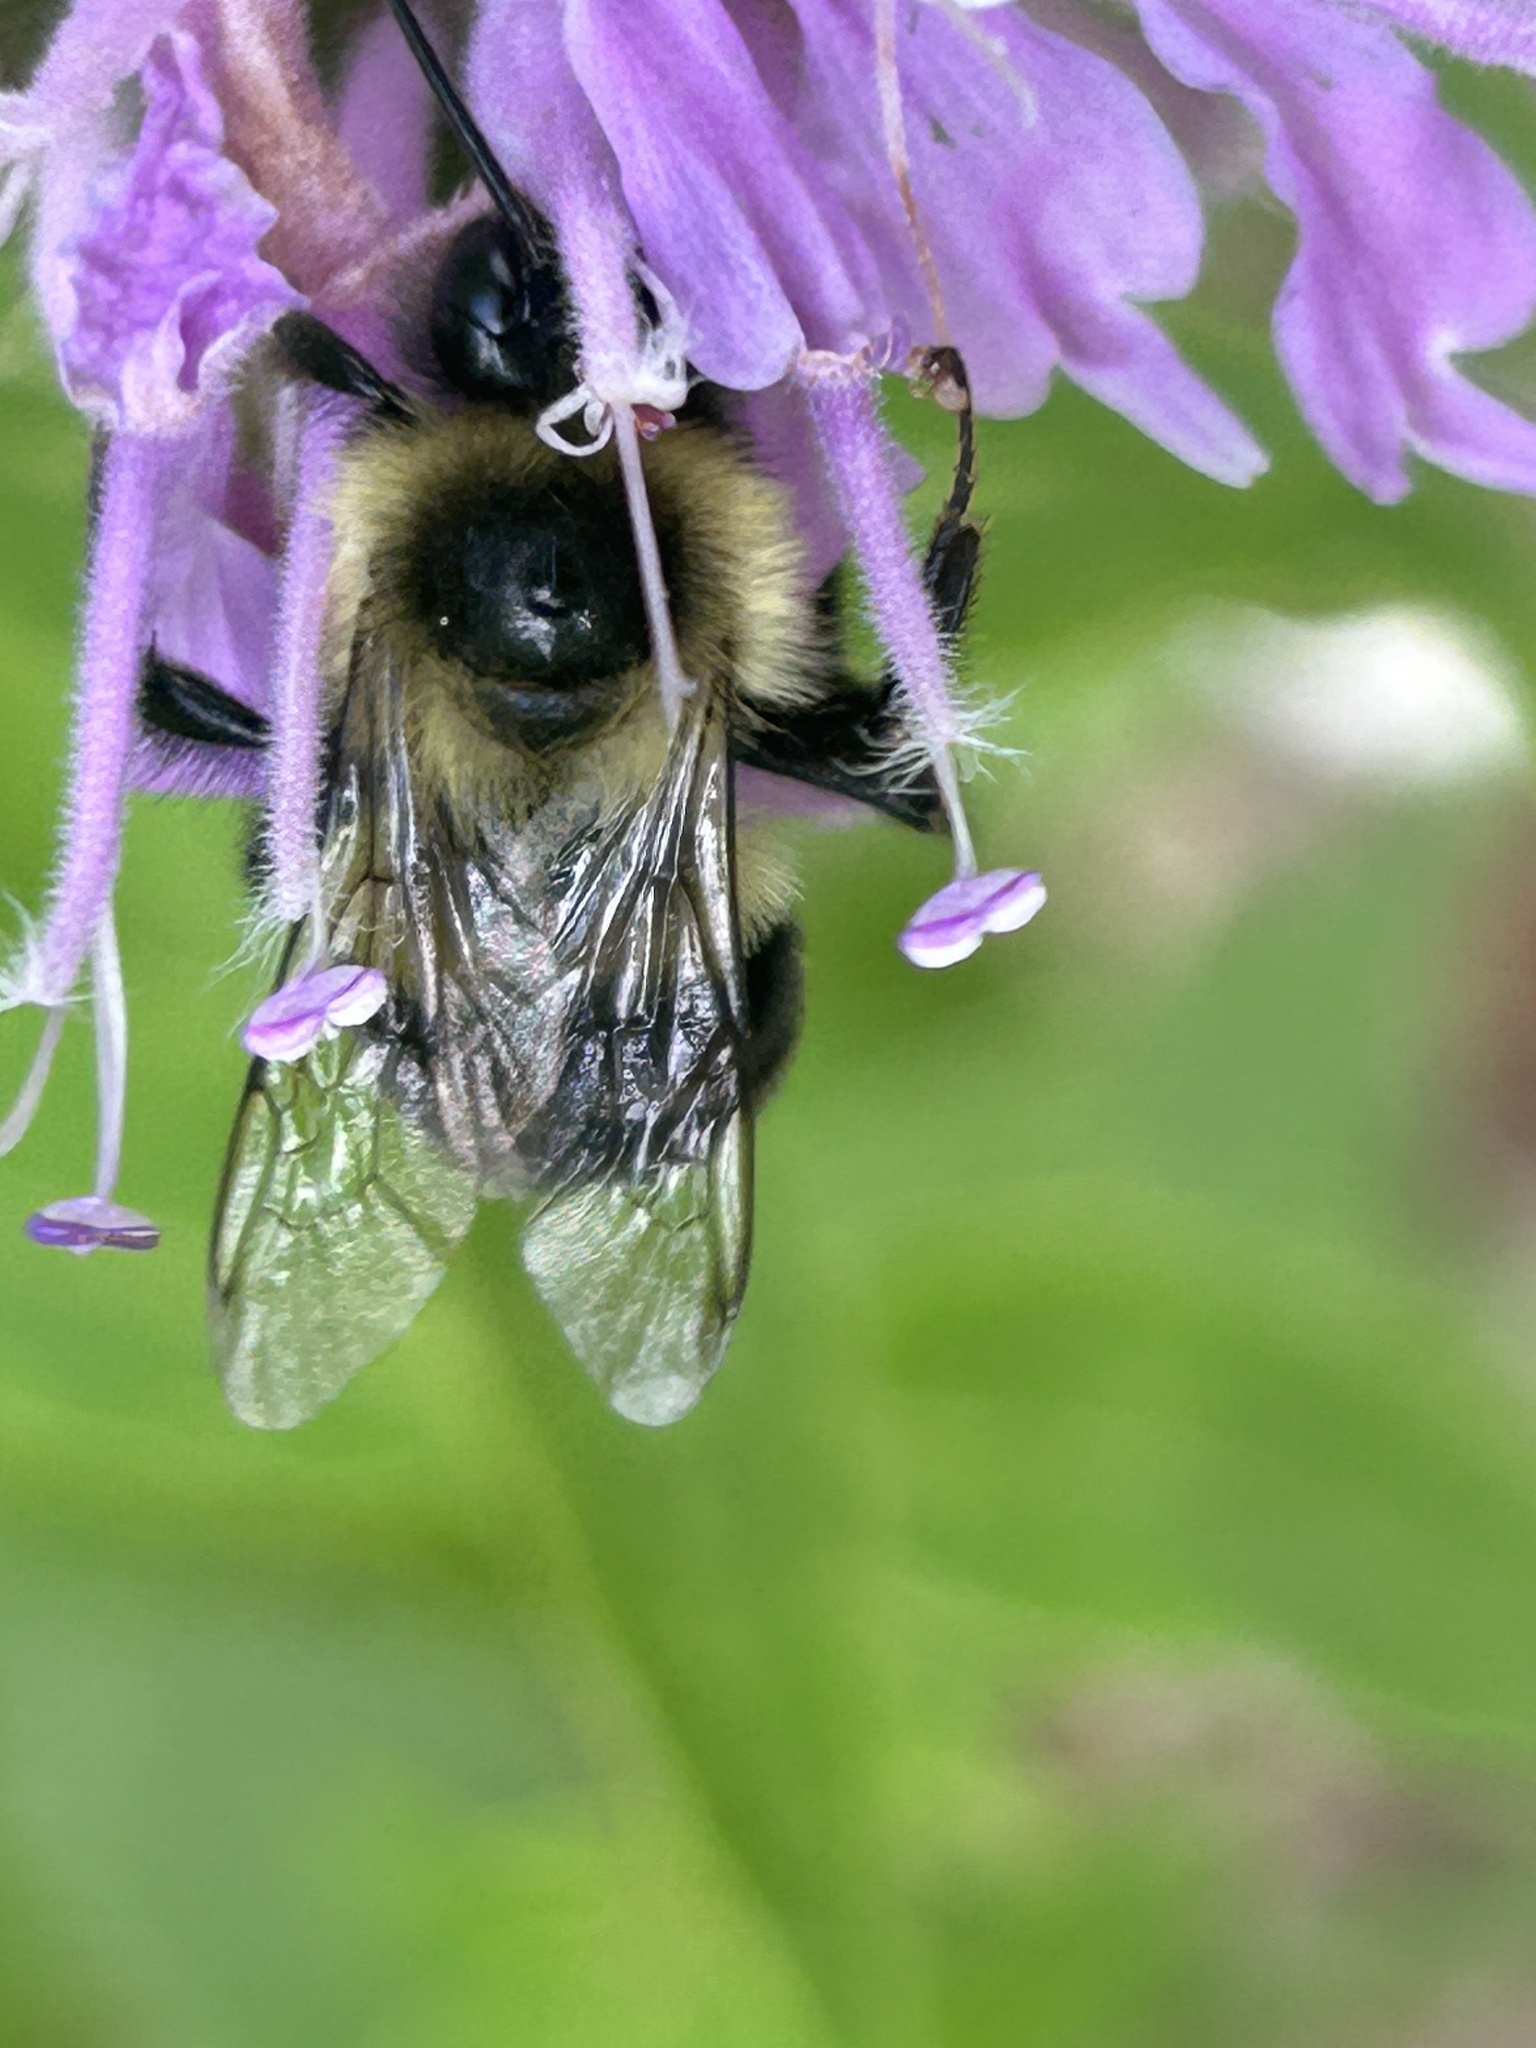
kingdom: Animalia
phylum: Arthropoda
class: Insecta
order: Hymenoptera
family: Apidae
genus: Bombus
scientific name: Bombus impatiens
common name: Common eastern bumble bee
